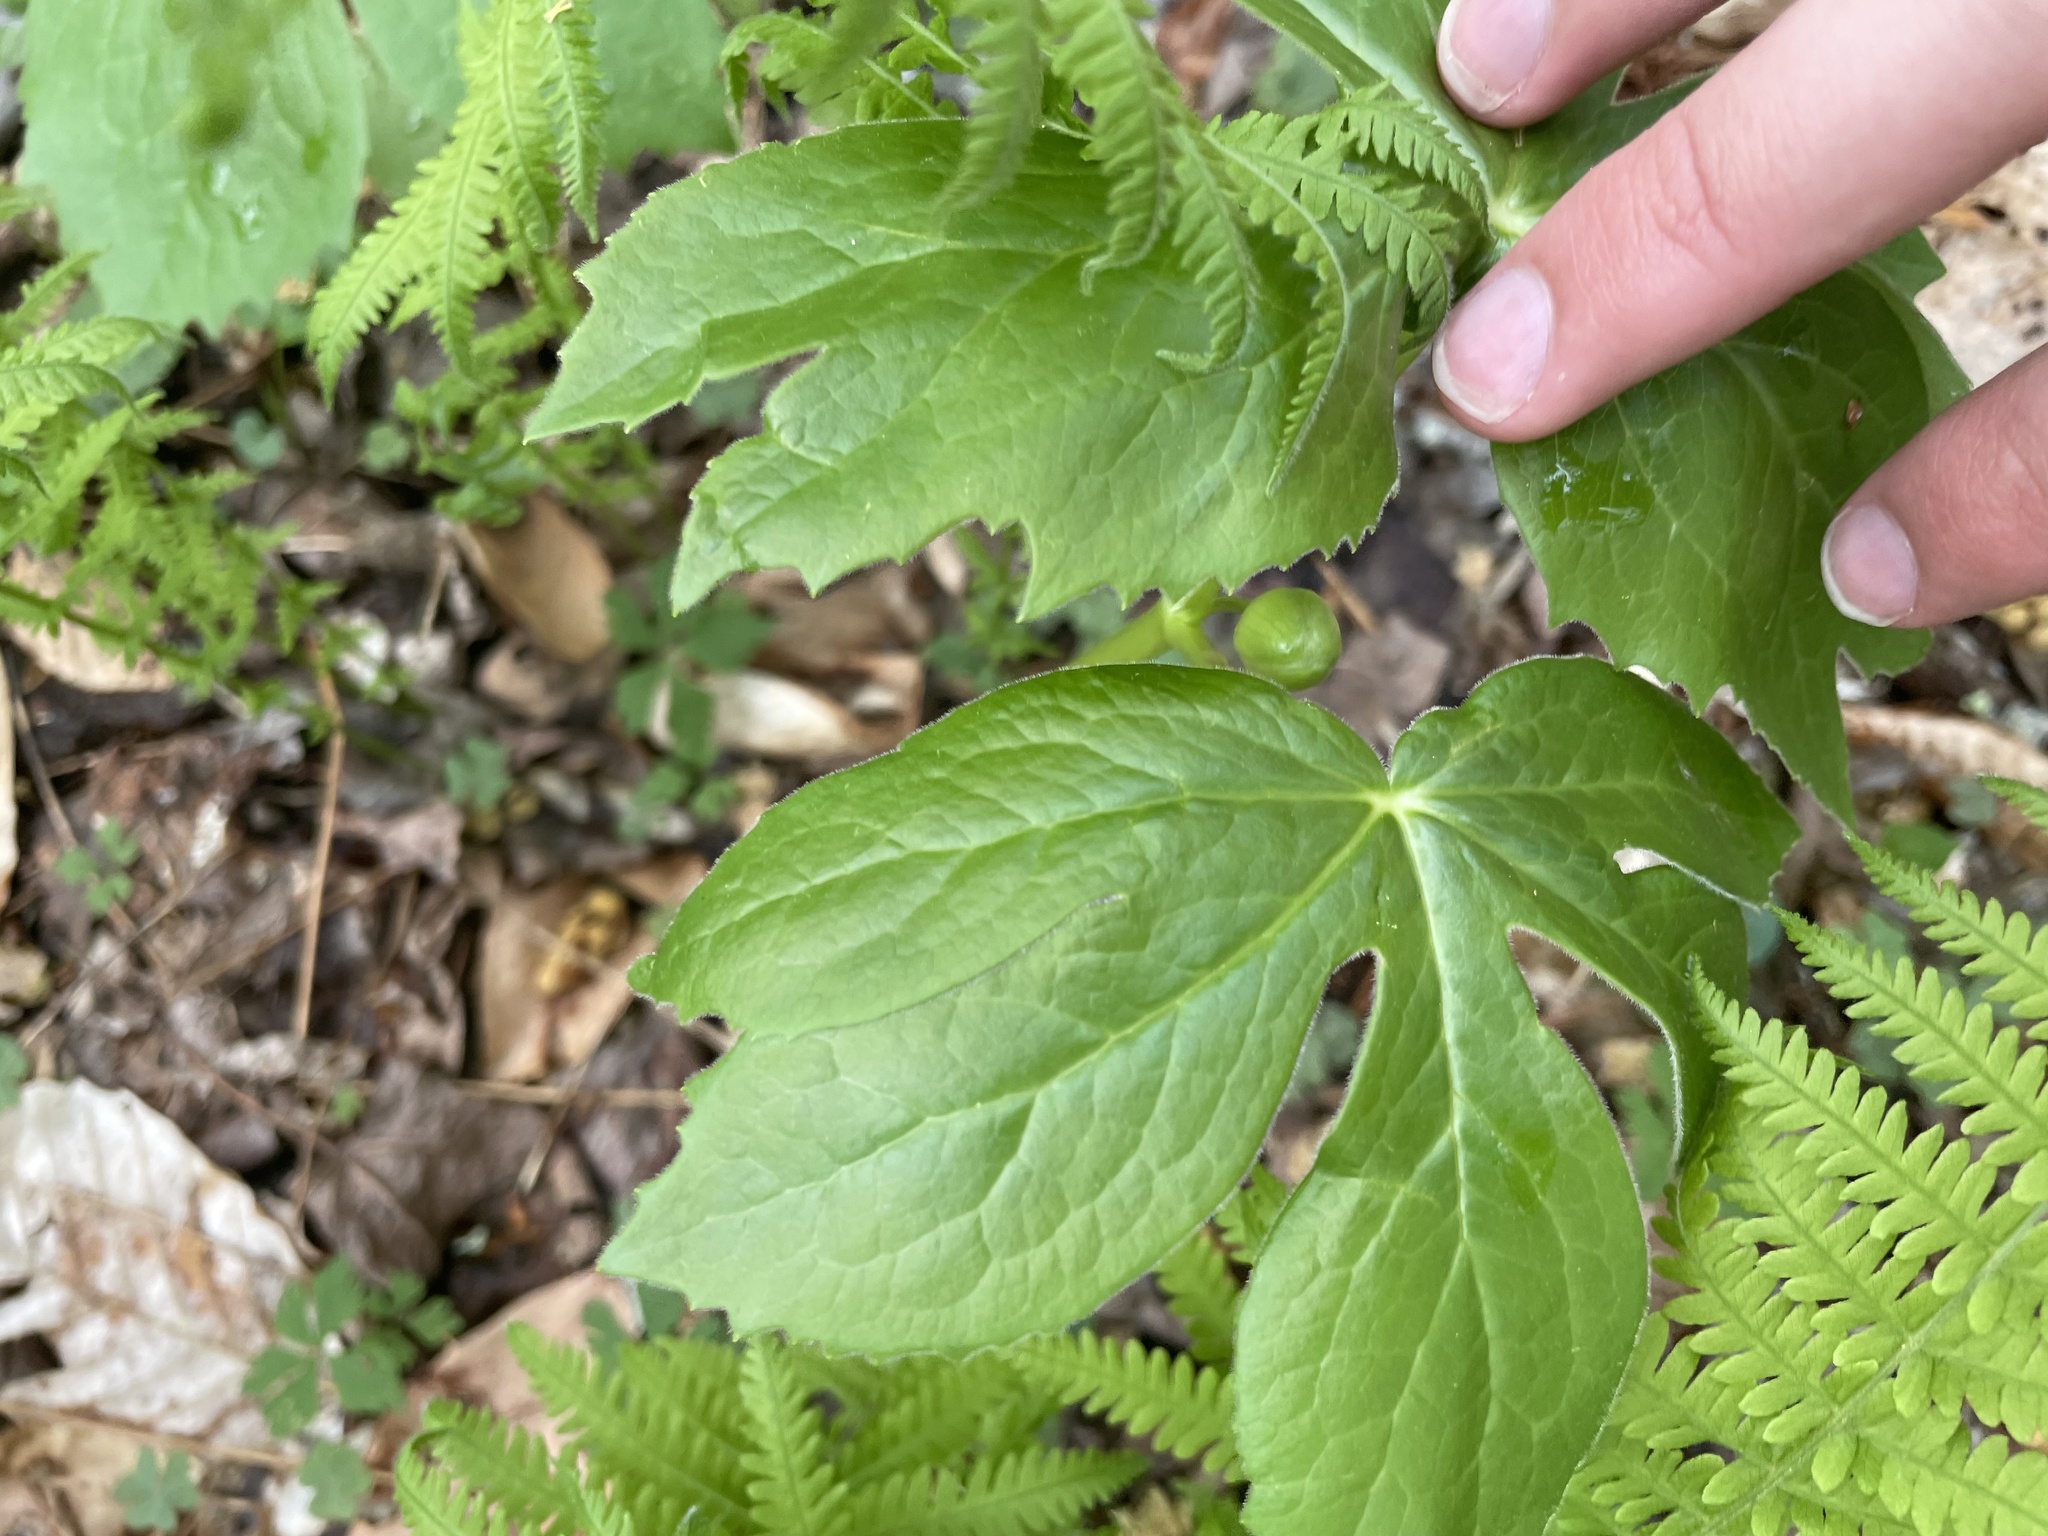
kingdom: Plantae
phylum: Tracheophyta
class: Magnoliopsida
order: Ranunculales
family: Berberidaceae
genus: Podophyllum
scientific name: Podophyllum peltatum
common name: Wild mandrake
